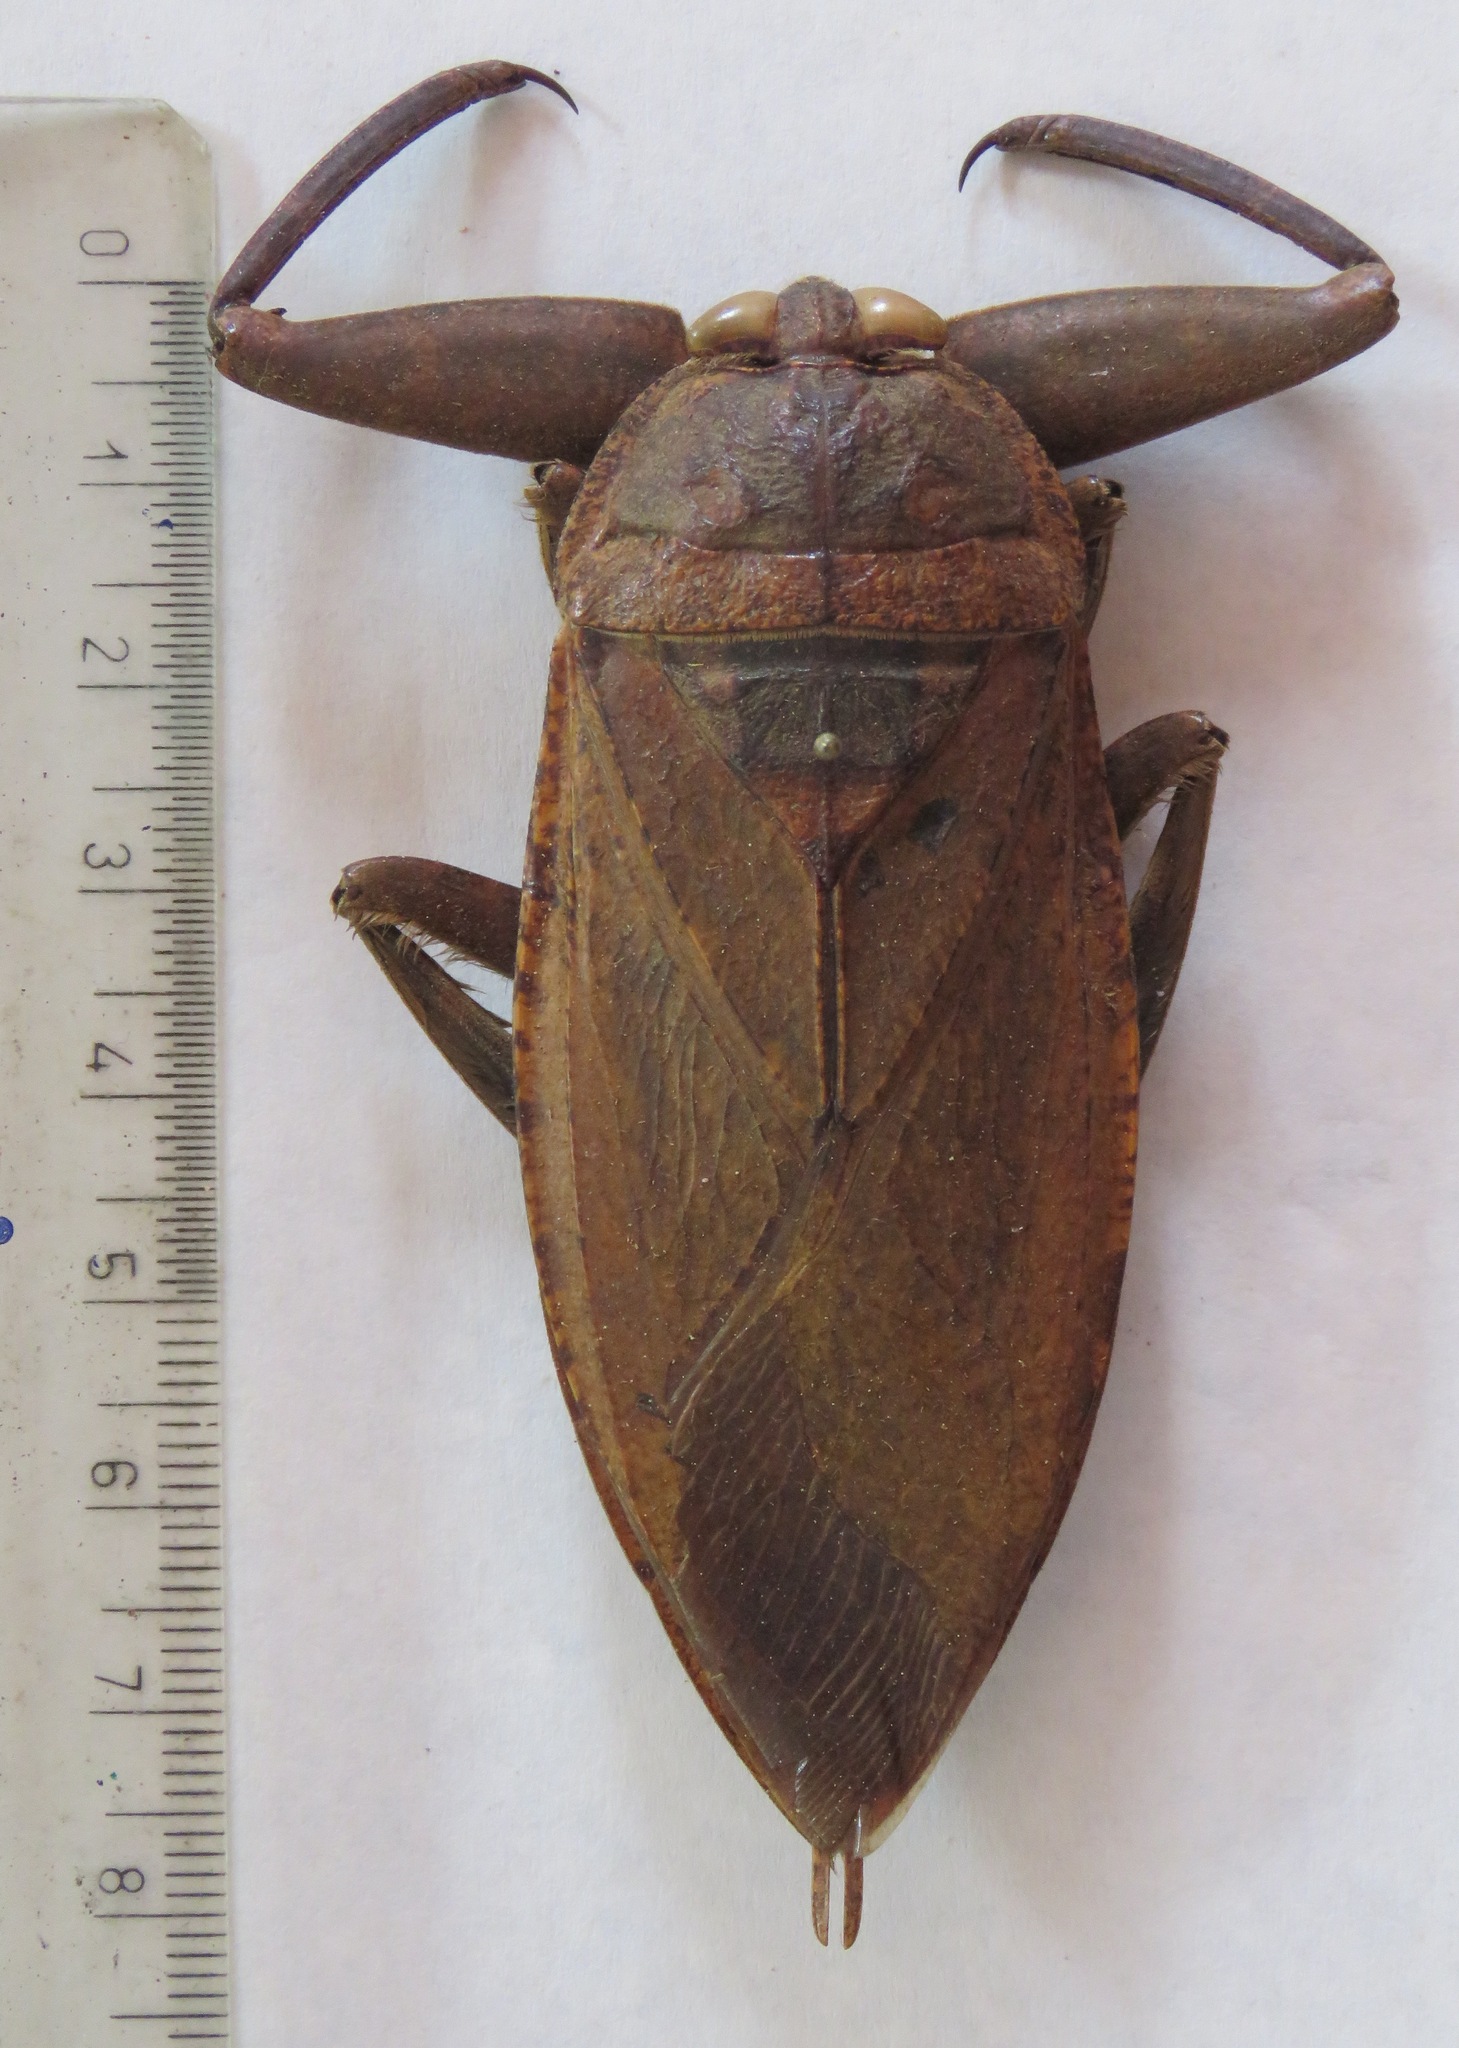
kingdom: Animalia
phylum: Arthropoda
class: Insecta
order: Hemiptera
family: Belostomatidae
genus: Lethocerus
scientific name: Lethocerus collossicus
